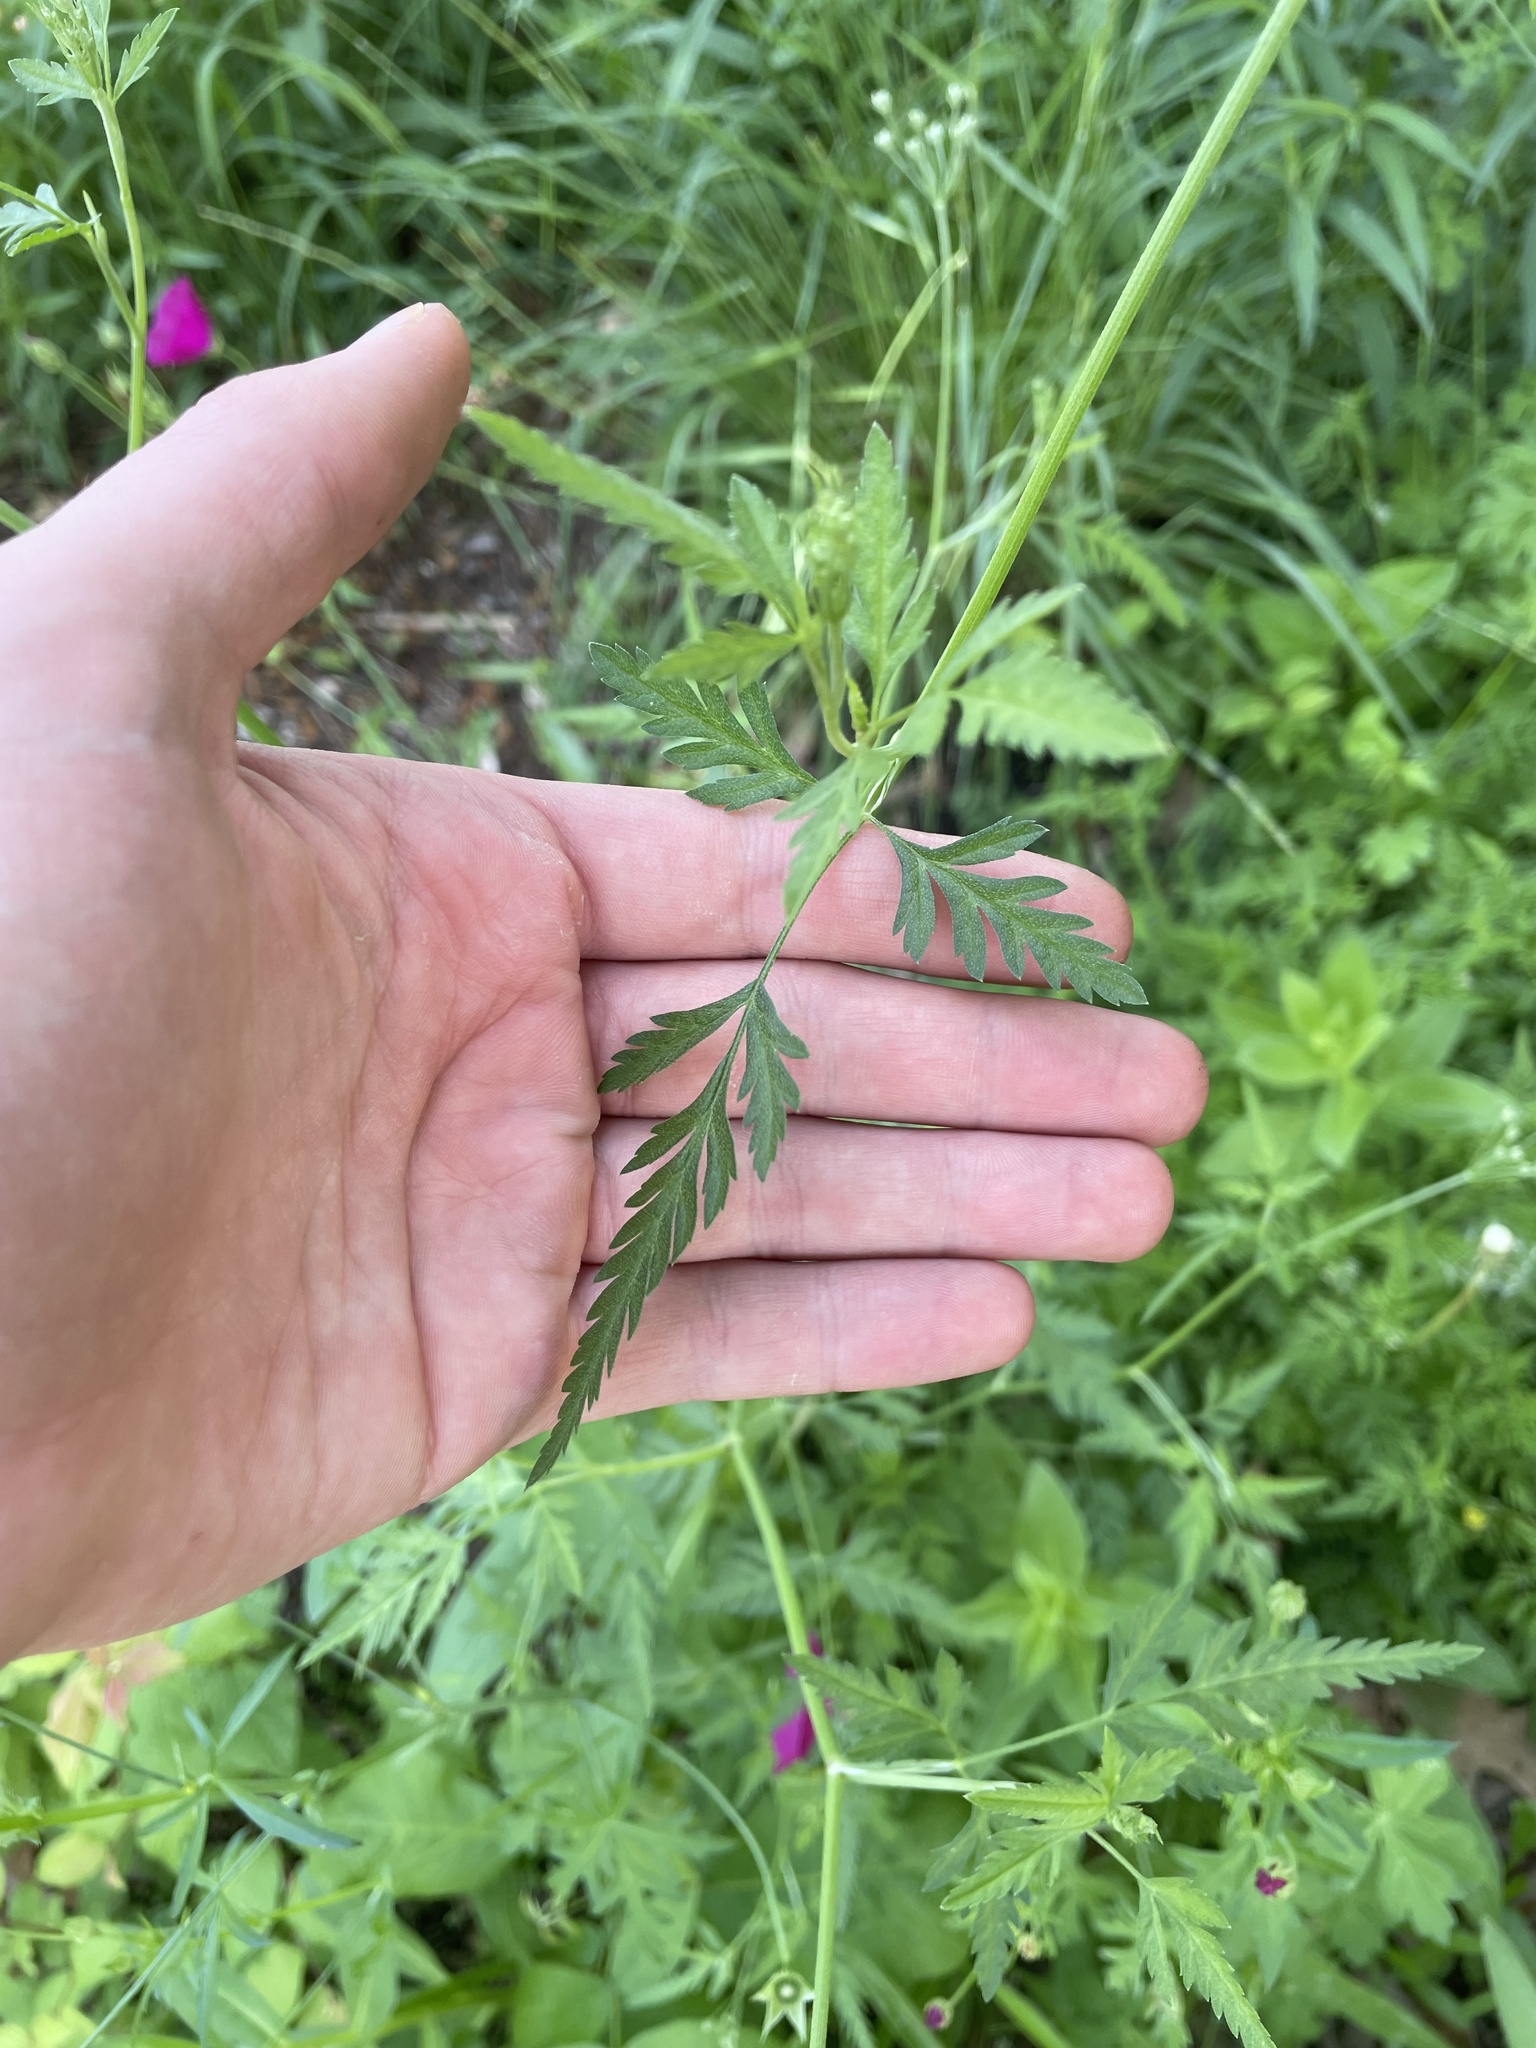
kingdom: Plantae
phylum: Tracheophyta
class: Magnoliopsida
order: Apiales
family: Apiaceae
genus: Torilis
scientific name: Torilis arvensis
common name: Spreading hedge-parsley
